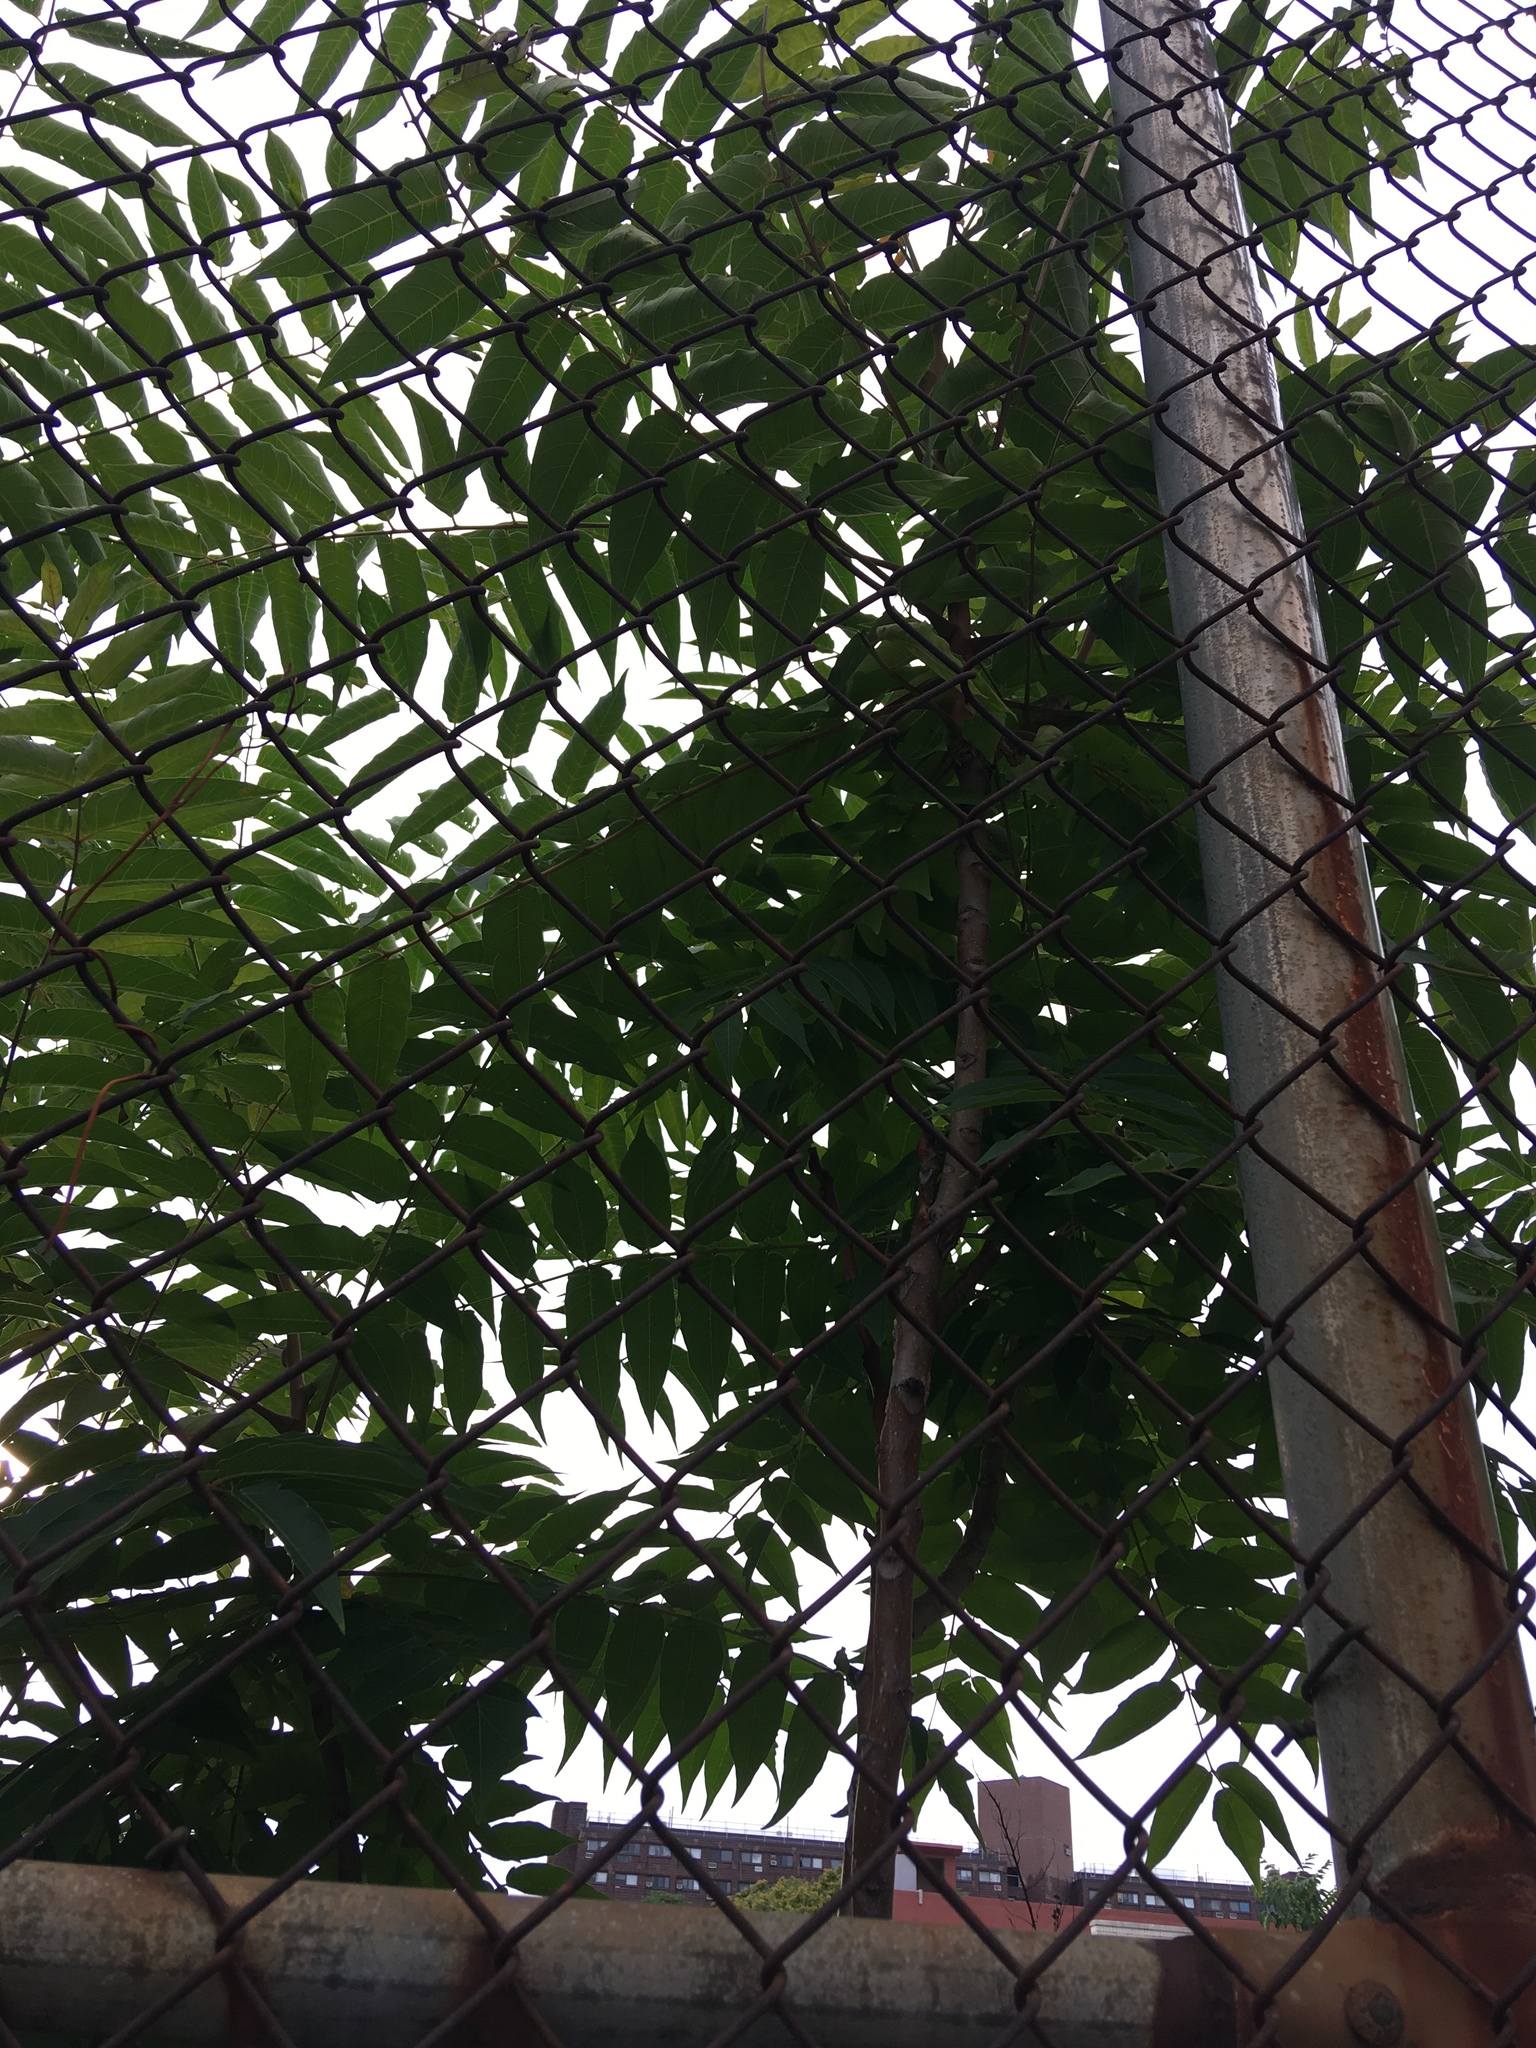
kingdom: Plantae
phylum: Tracheophyta
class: Magnoliopsida
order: Sapindales
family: Simaroubaceae
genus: Ailanthus
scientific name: Ailanthus altissima
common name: Tree-of-heaven
